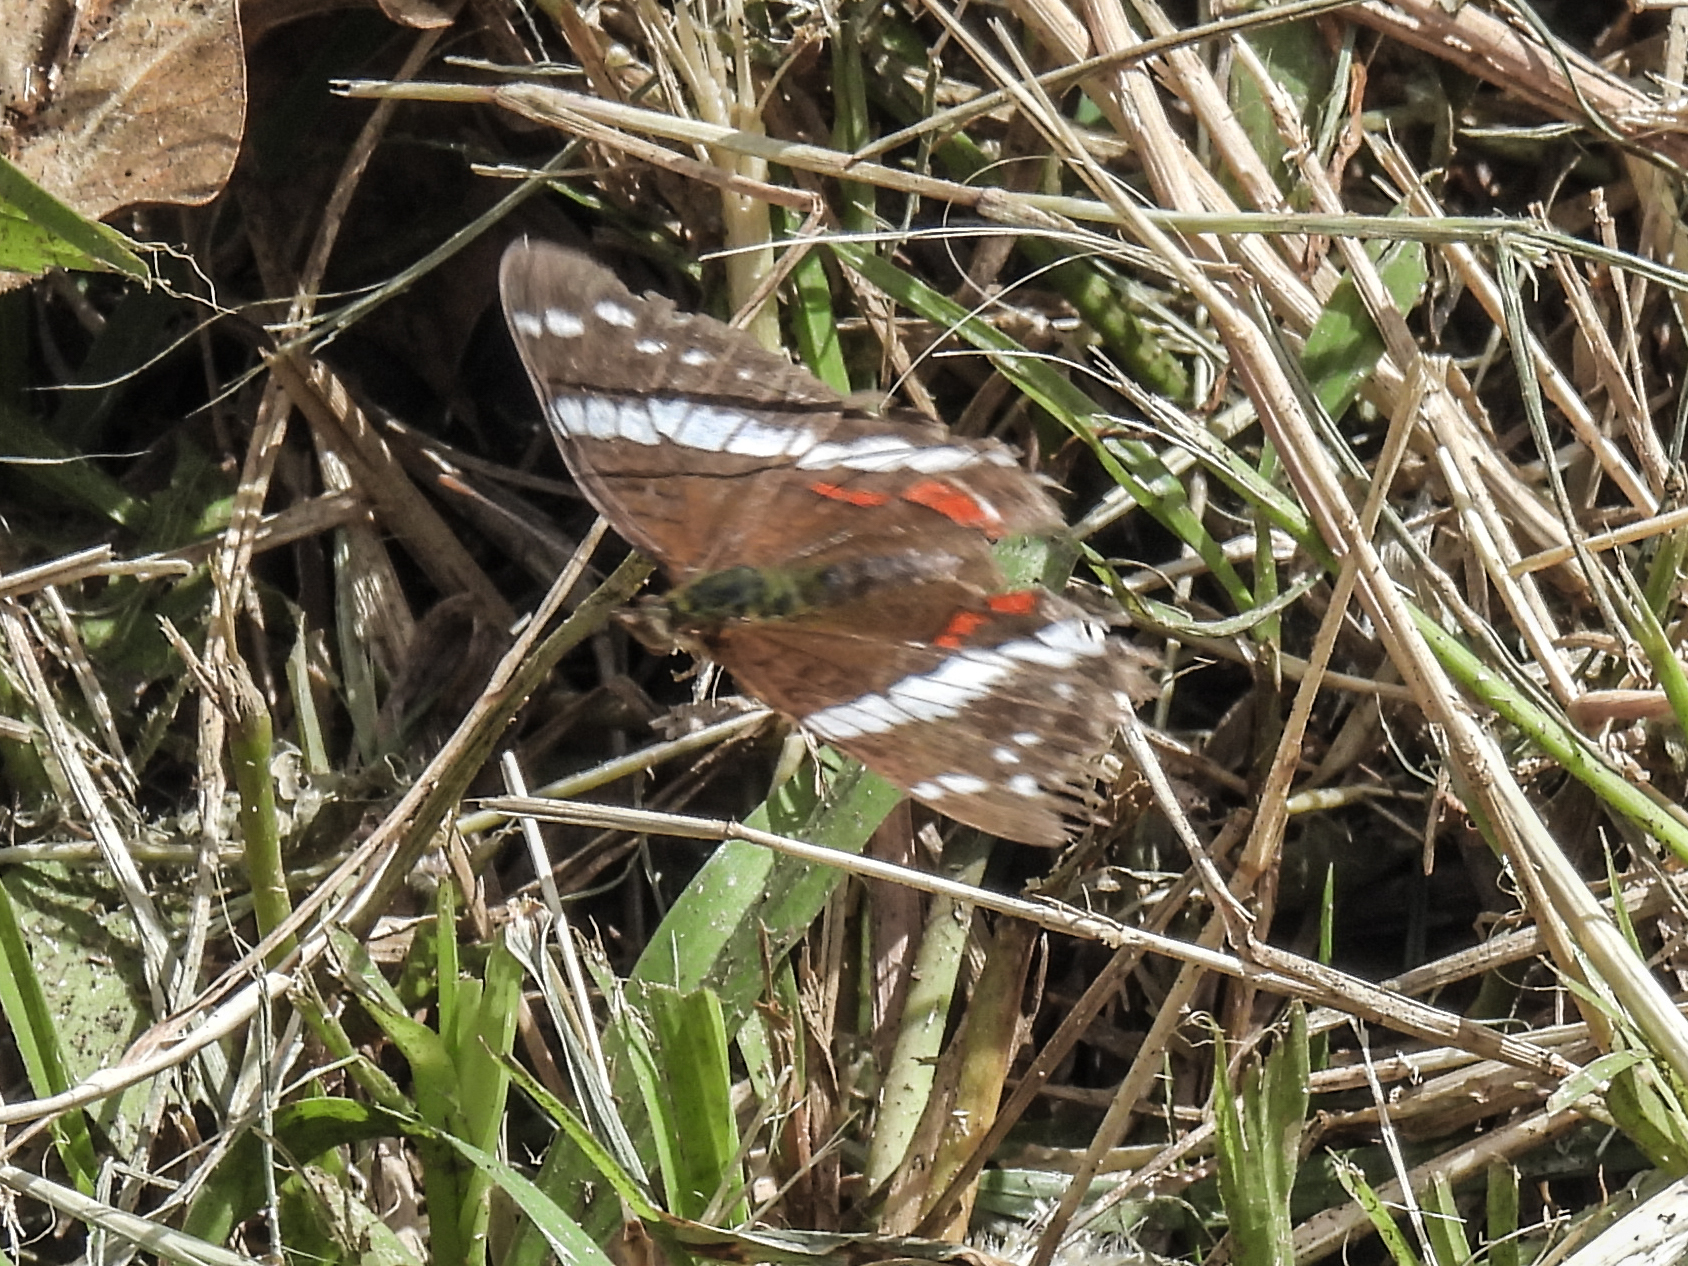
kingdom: Animalia
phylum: Arthropoda
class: Insecta
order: Lepidoptera
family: Nymphalidae
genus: Anartia
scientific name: Anartia fatima
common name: Banded peacock
